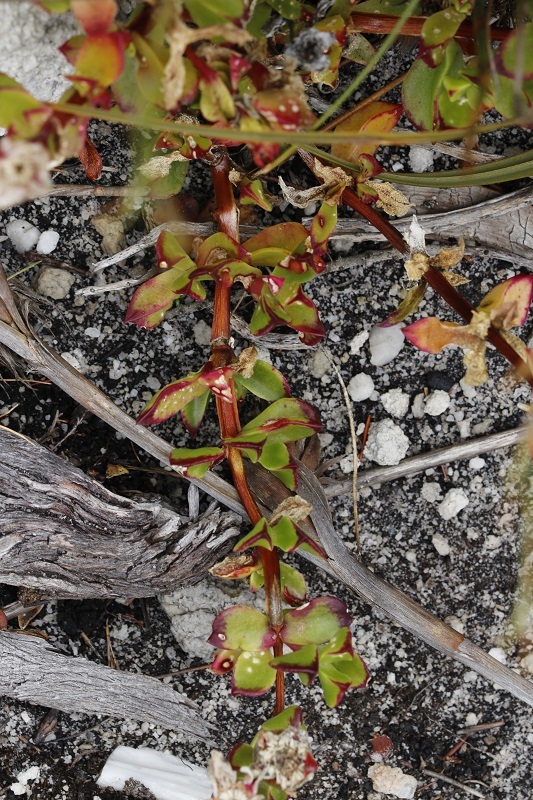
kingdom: Plantae
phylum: Tracheophyta
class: Magnoliopsida
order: Caryophyllales
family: Aizoaceae
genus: Erepsia
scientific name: Erepsia inclaudens
